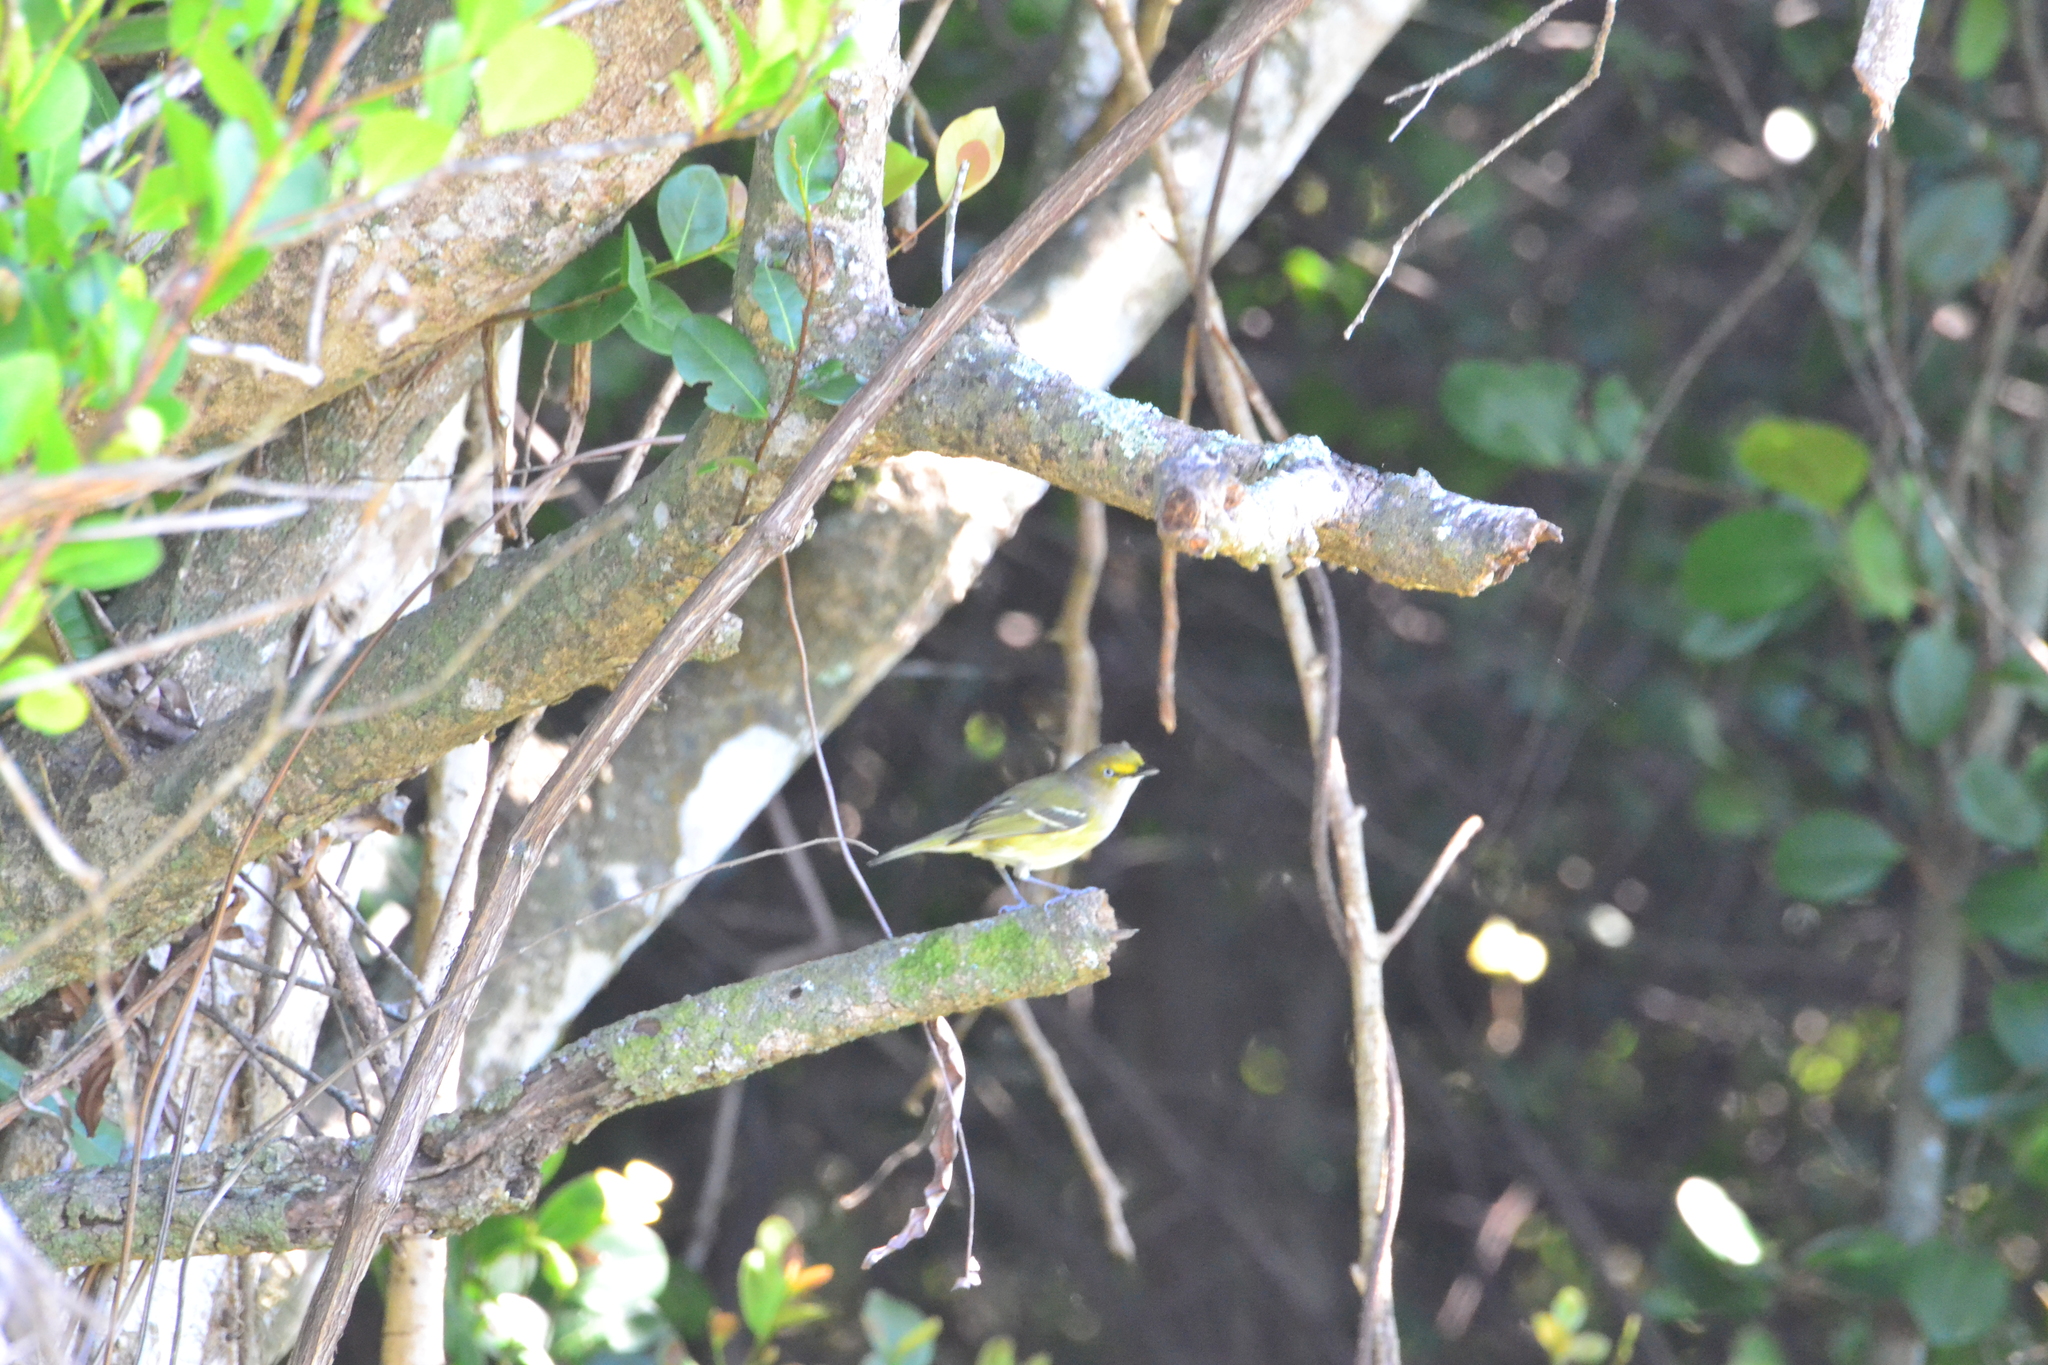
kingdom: Animalia
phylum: Chordata
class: Aves
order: Passeriformes
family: Vireonidae
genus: Vireo
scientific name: Vireo griseus
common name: White-eyed vireo
